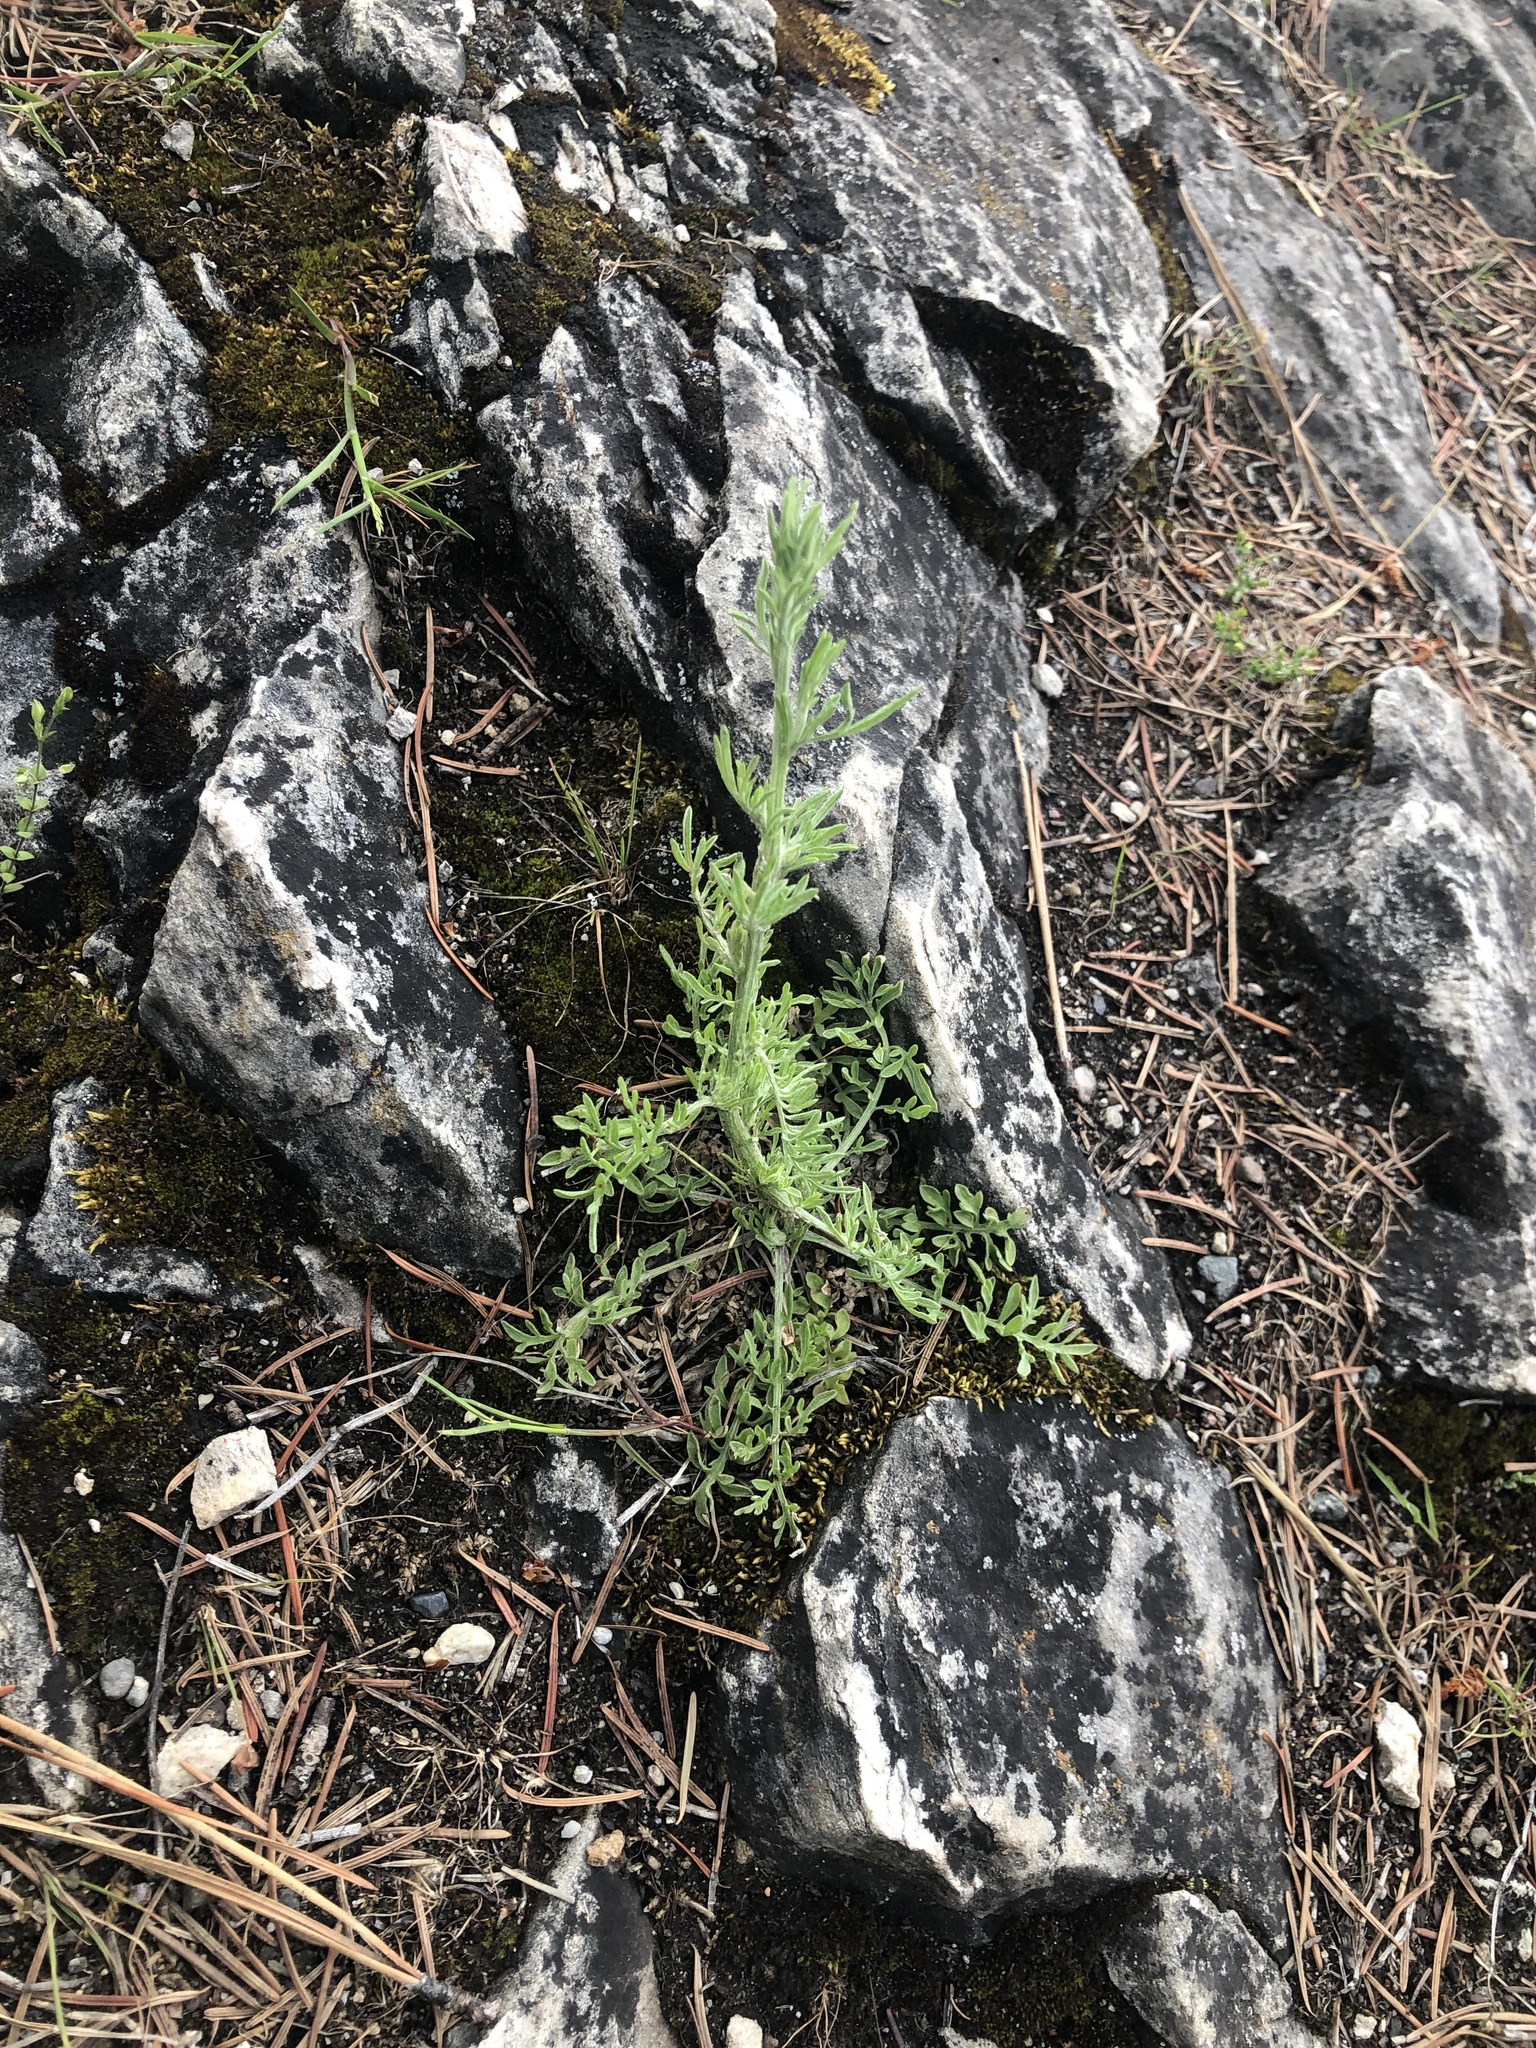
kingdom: Plantae
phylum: Tracheophyta
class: Magnoliopsida
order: Asterales
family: Asteraceae
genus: Centaurea
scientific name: Centaurea diffusa
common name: Diffuse knapweed
